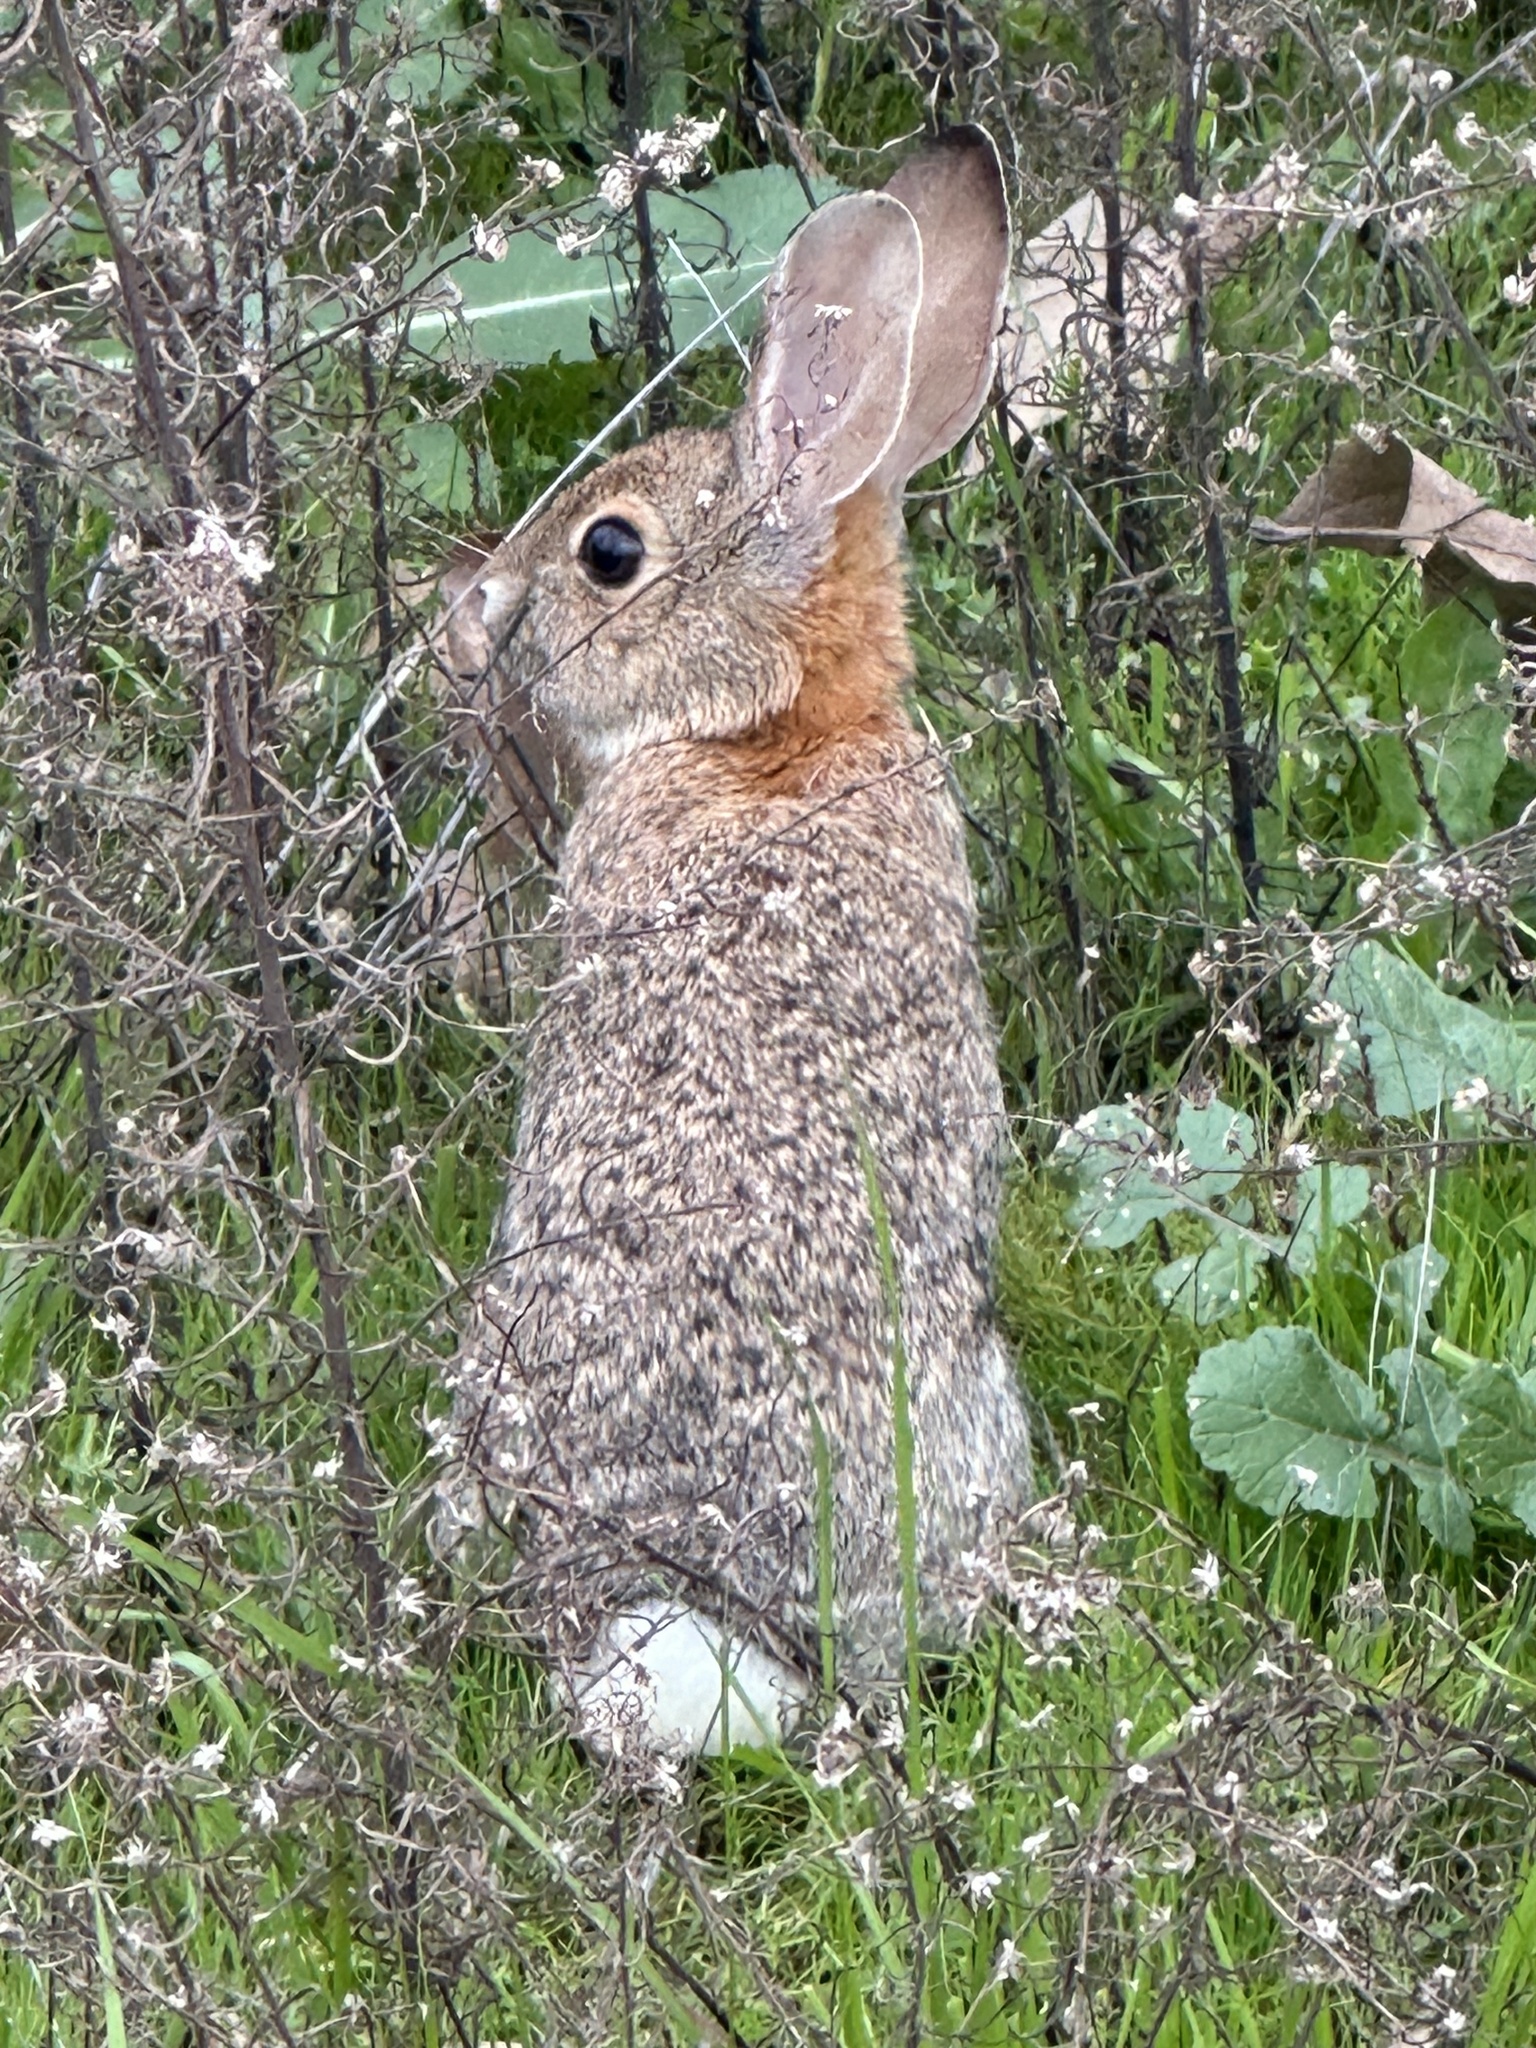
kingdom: Animalia
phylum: Chordata
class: Mammalia
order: Lagomorpha
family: Leporidae
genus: Sylvilagus
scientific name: Sylvilagus bachmani
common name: Brush rabbit
